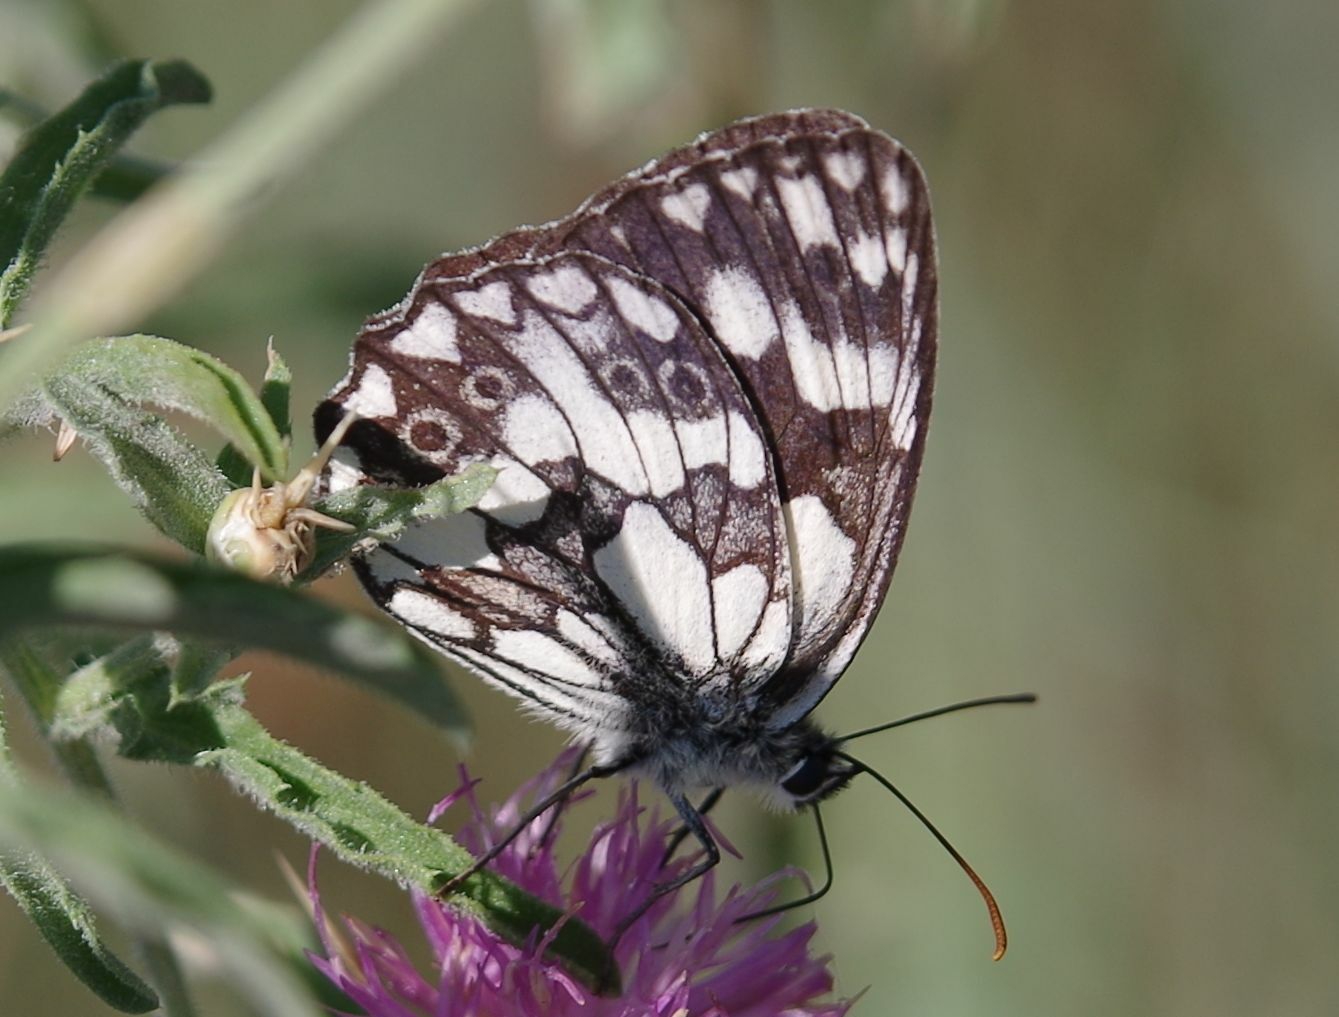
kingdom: Animalia
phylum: Arthropoda
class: Insecta
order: Lepidoptera
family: Nymphalidae
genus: Melanargia
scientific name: Melanargia galathea
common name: Marbled white
